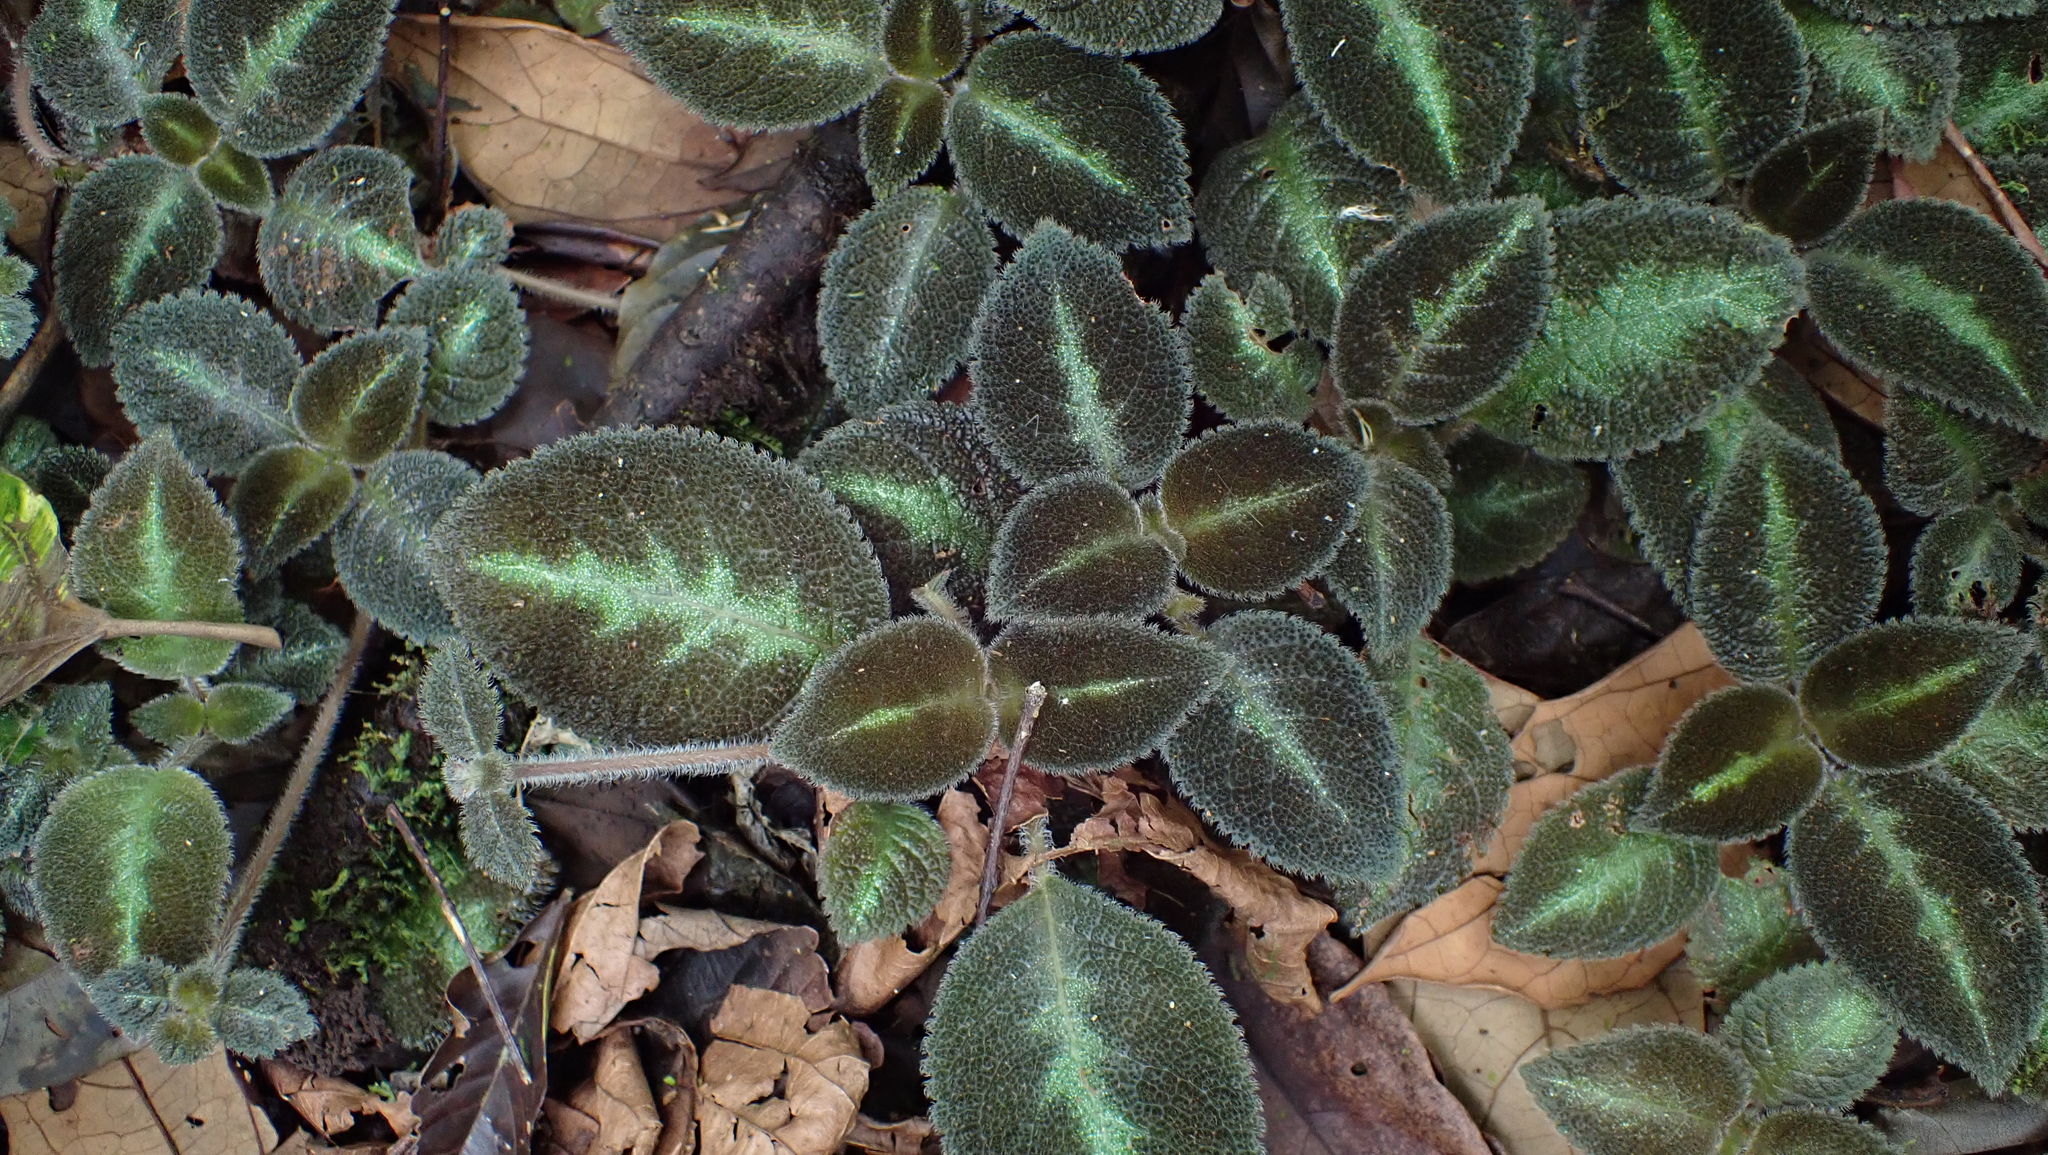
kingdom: Plantae
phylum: Tracheophyta
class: Magnoliopsida
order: Lamiales
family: Gesneriaceae
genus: Episcia
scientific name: Episcia lilacina
